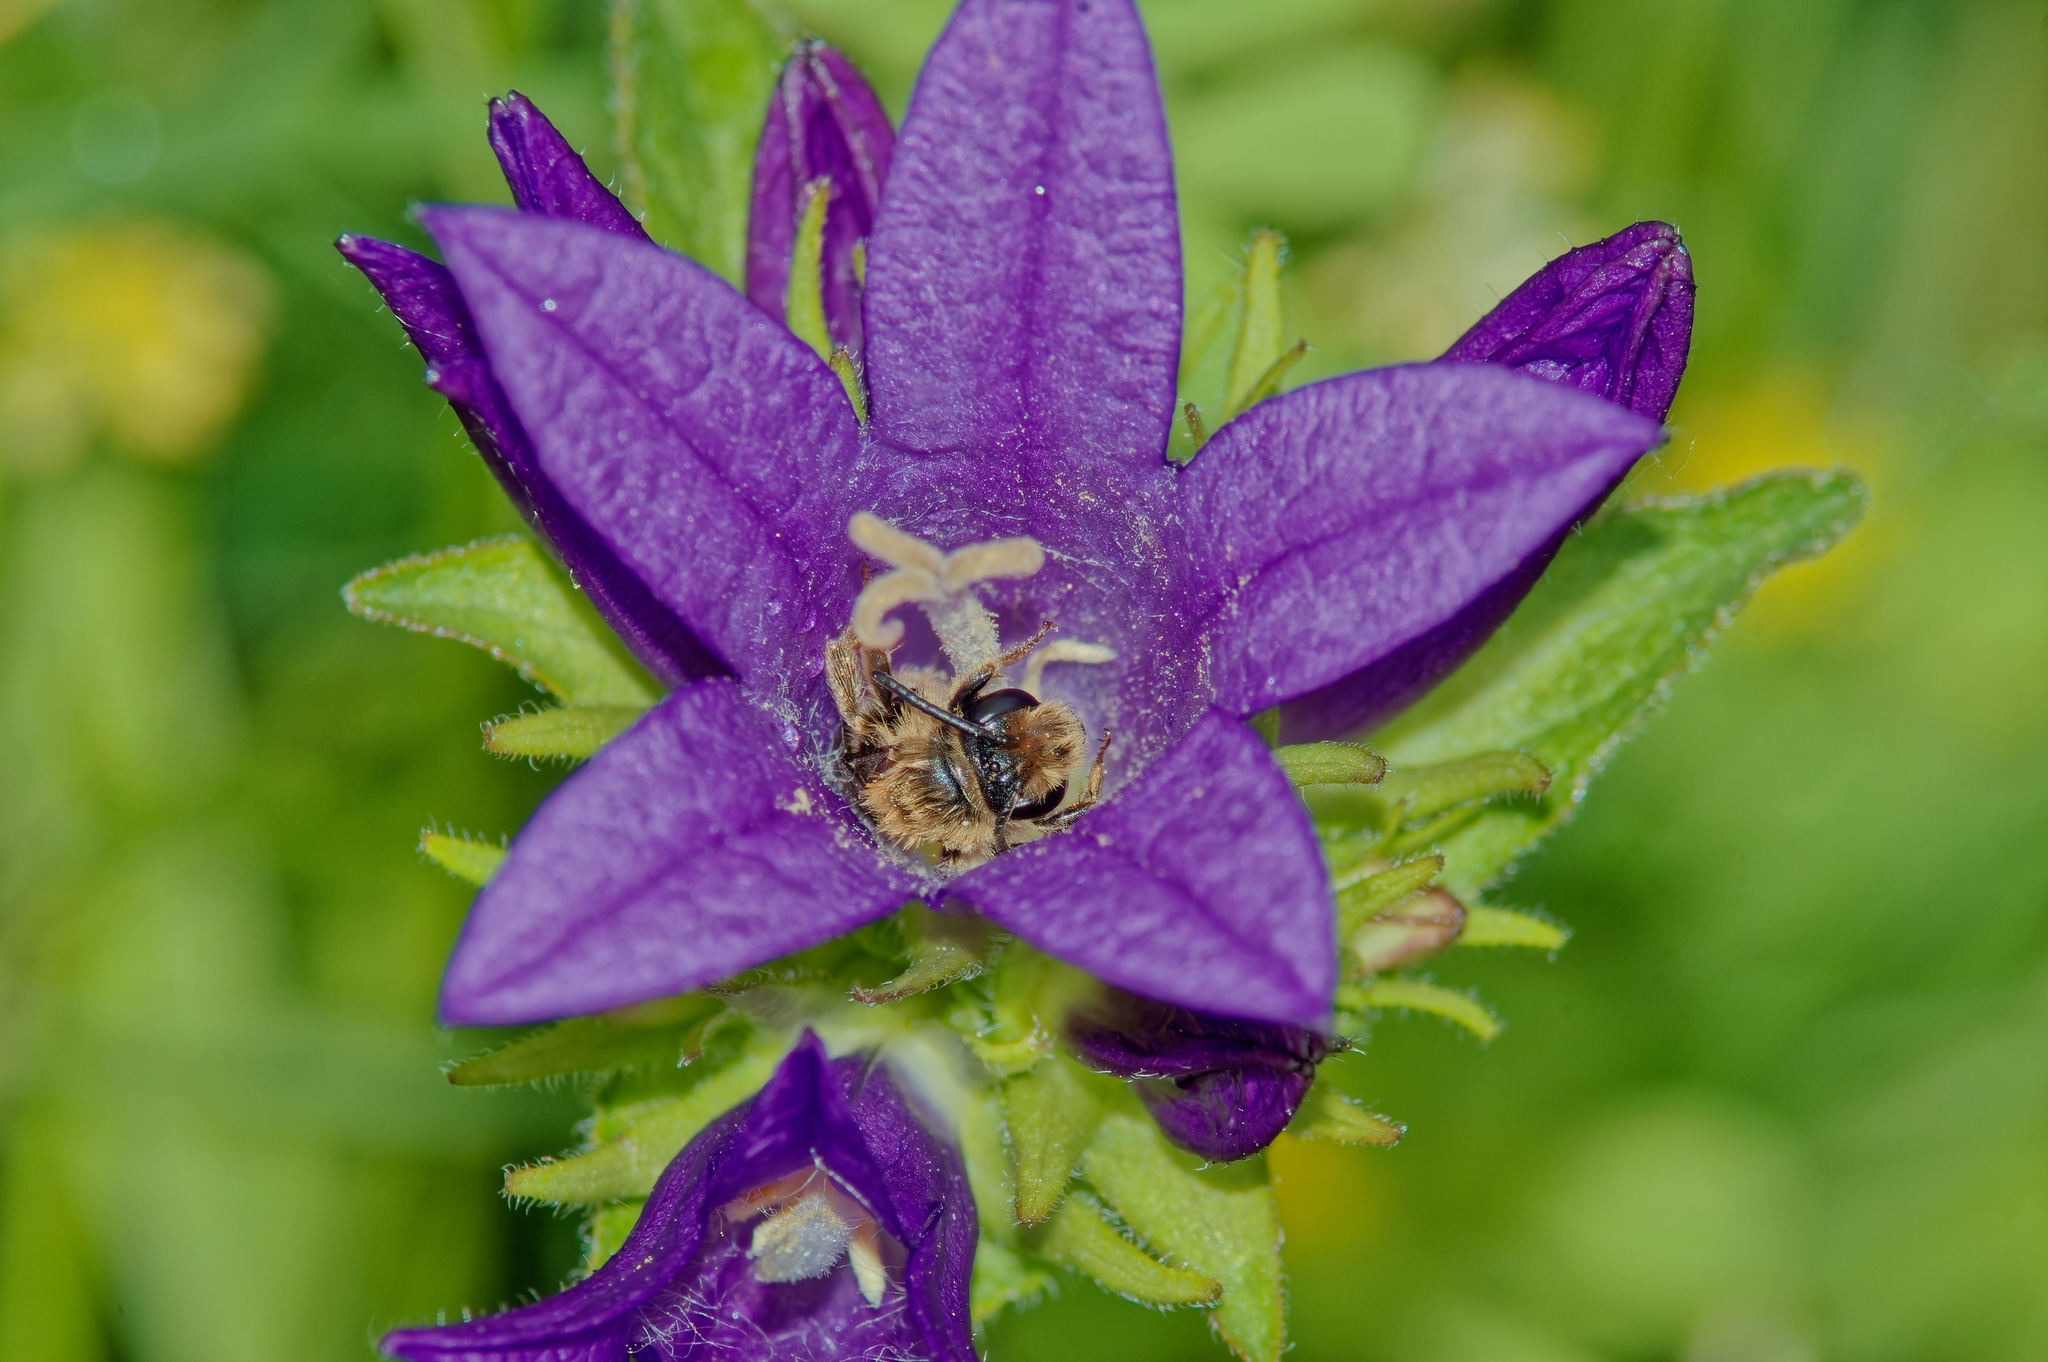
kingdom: Plantae
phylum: Tracheophyta
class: Magnoliopsida
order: Asterales
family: Campanulaceae
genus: Campanula
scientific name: Campanula glomerata
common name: Clustered bellflower
